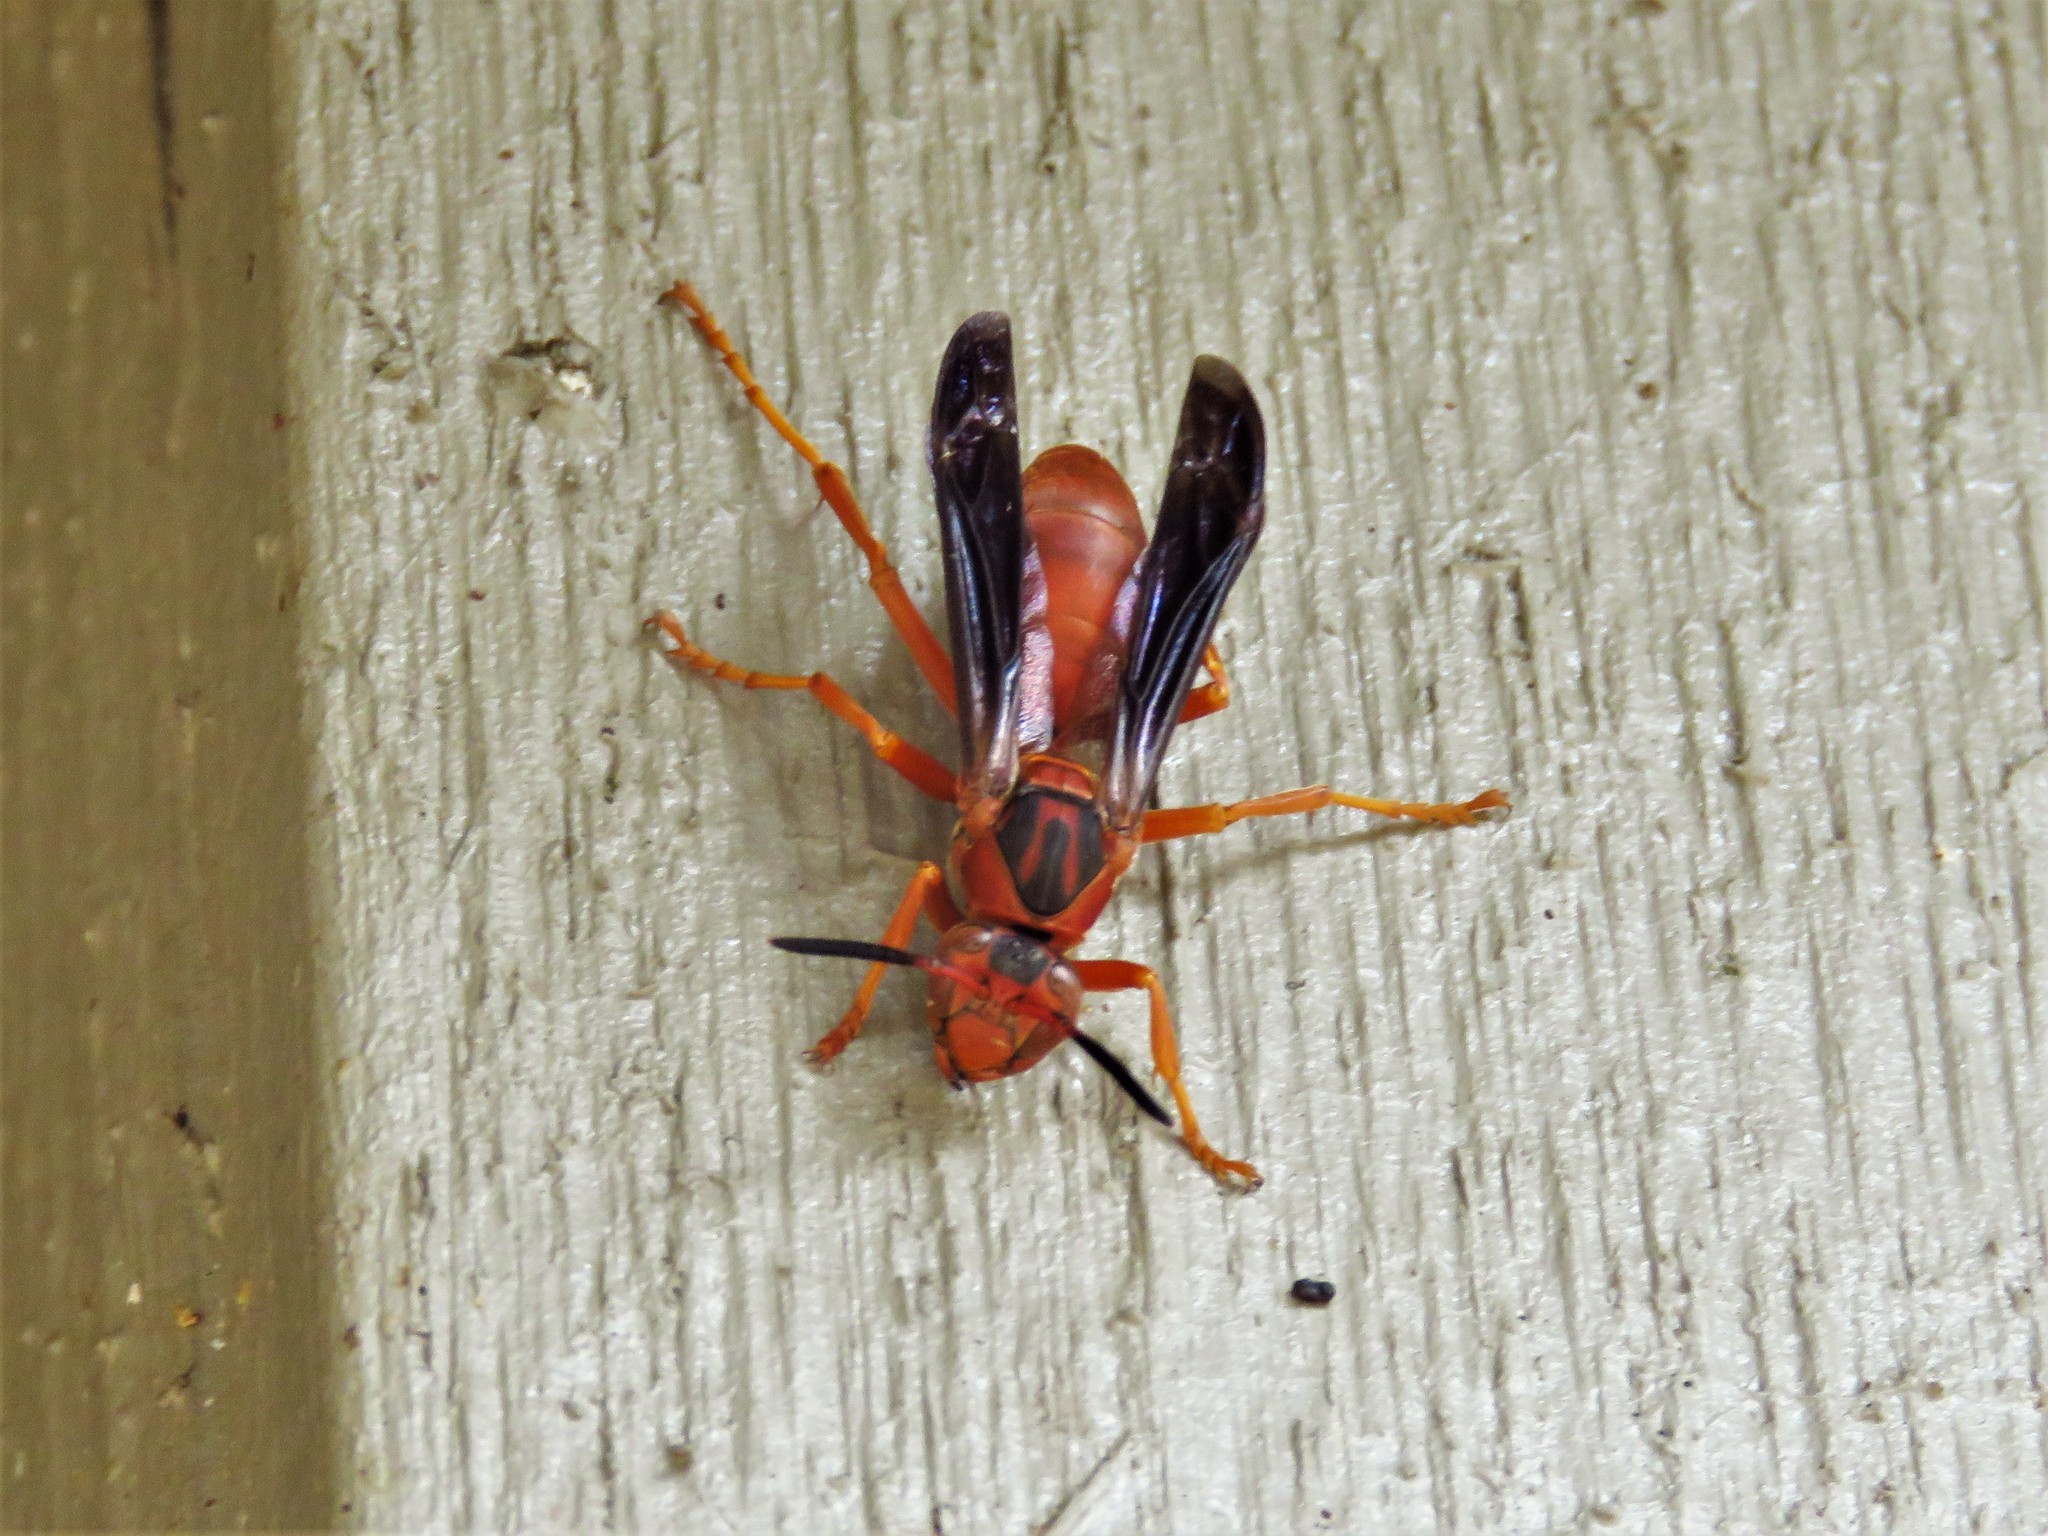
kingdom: Animalia
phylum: Arthropoda
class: Insecta
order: Hymenoptera
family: Eumenidae
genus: Polistes
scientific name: Polistes carolina
